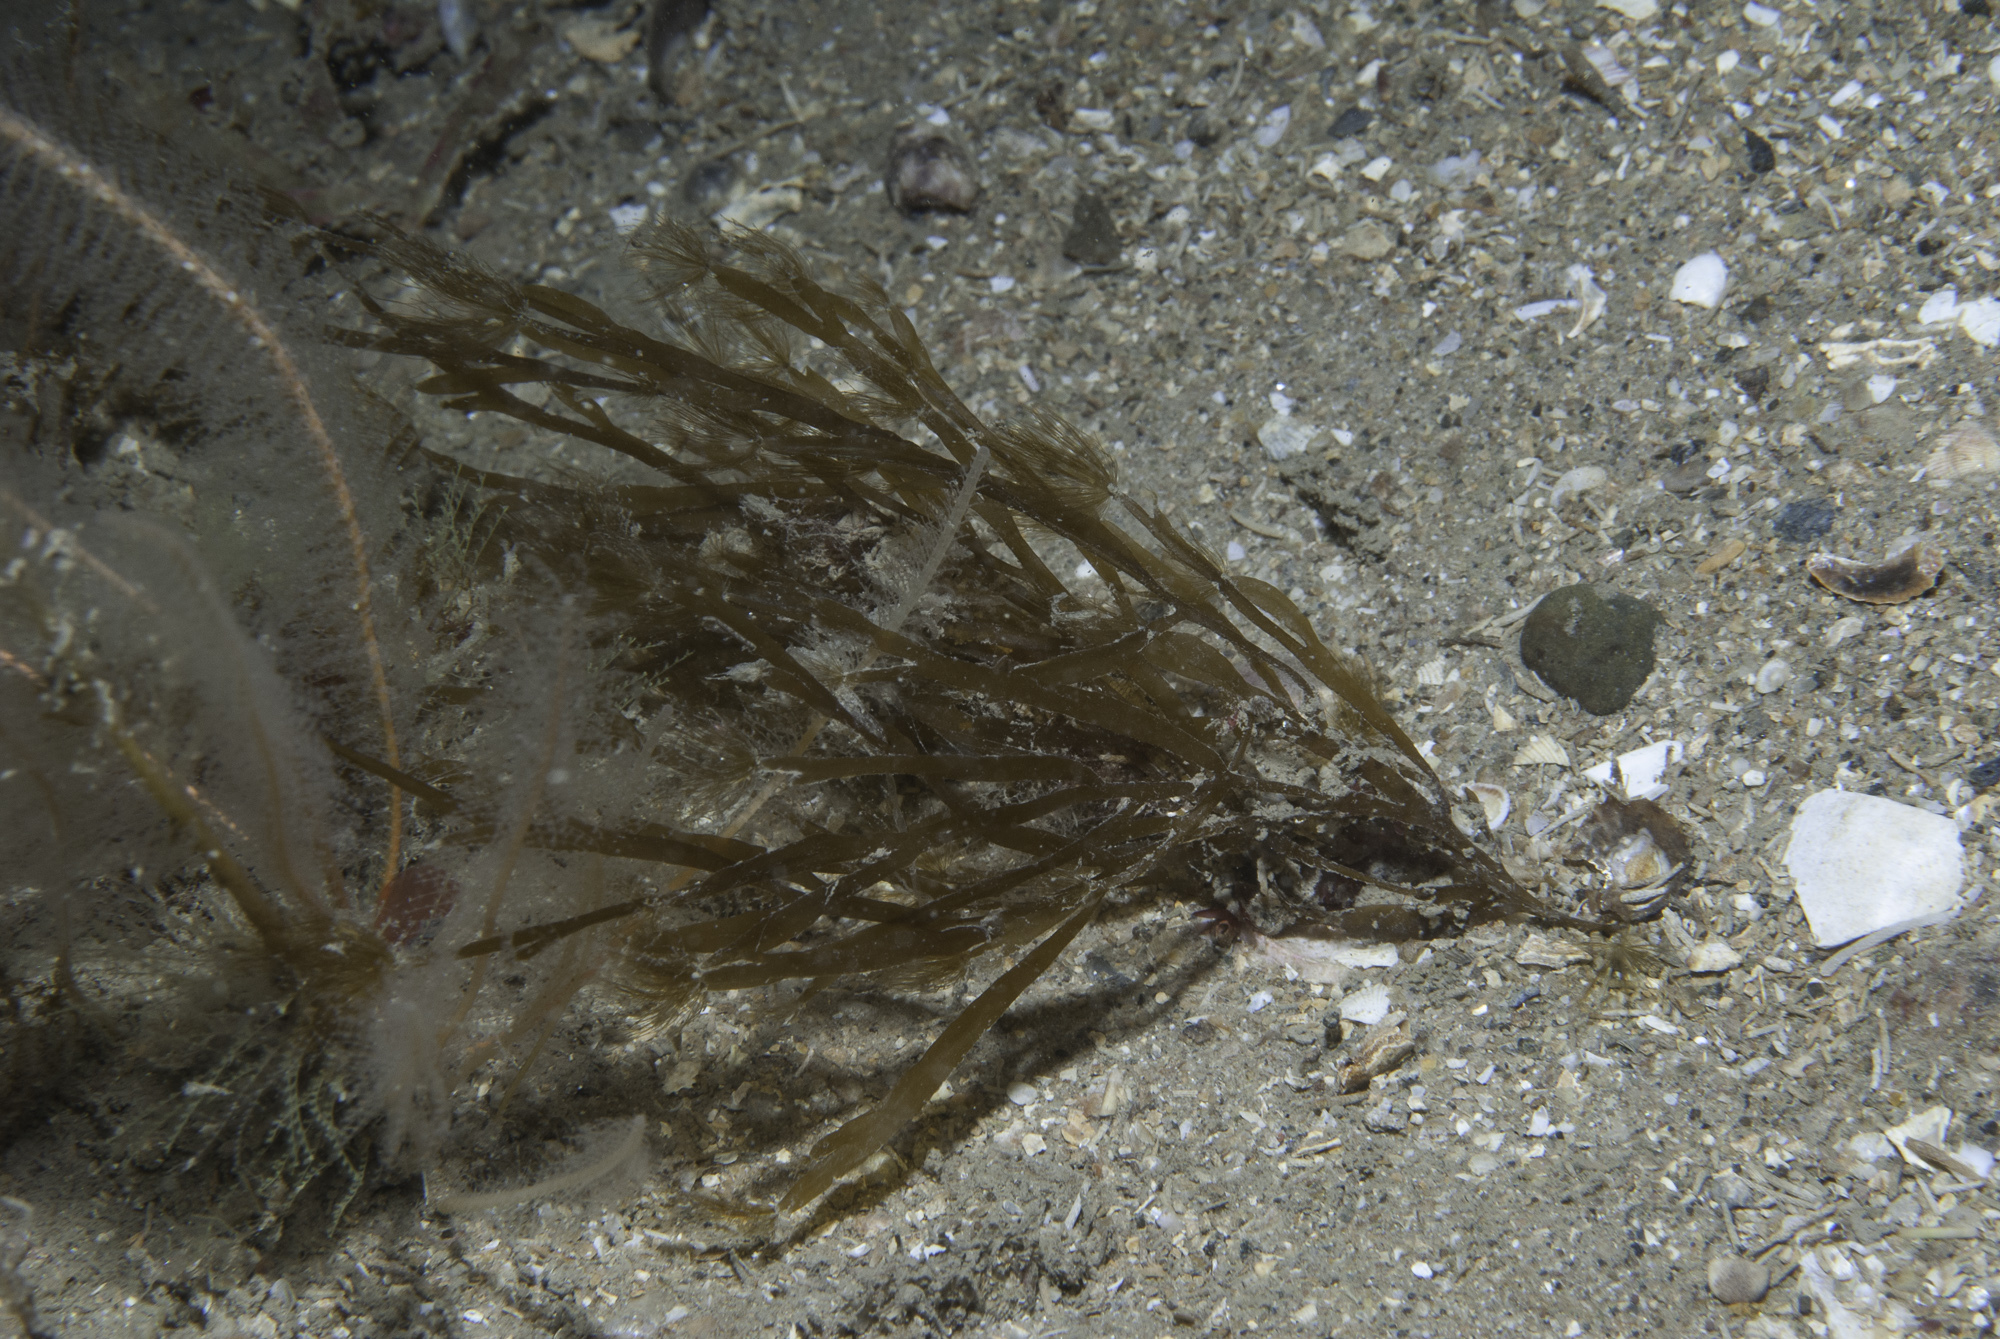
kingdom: Chromista
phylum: Ochrophyta
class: Phaeophyceae
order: Sporochnales
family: Sporochnaceae
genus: Carpomitra
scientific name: Carpomitra costata
